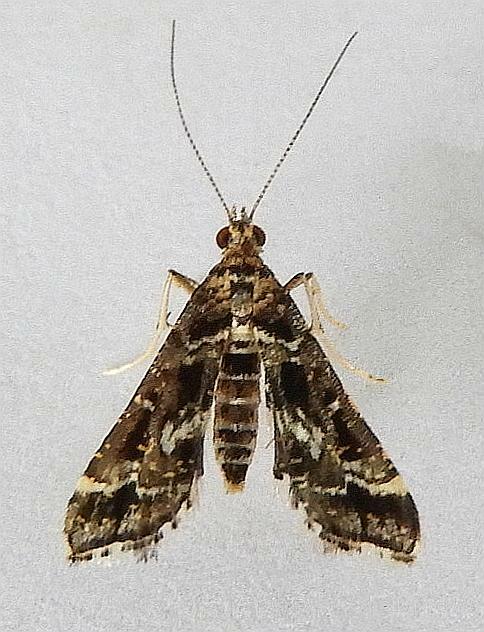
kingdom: Animalia
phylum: Arthropoda
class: Insecta
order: Lepidoptera
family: Crambidae
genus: Diasemiopsis
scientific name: Diasemiopsis ramburialis
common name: Vagrant china-mark
